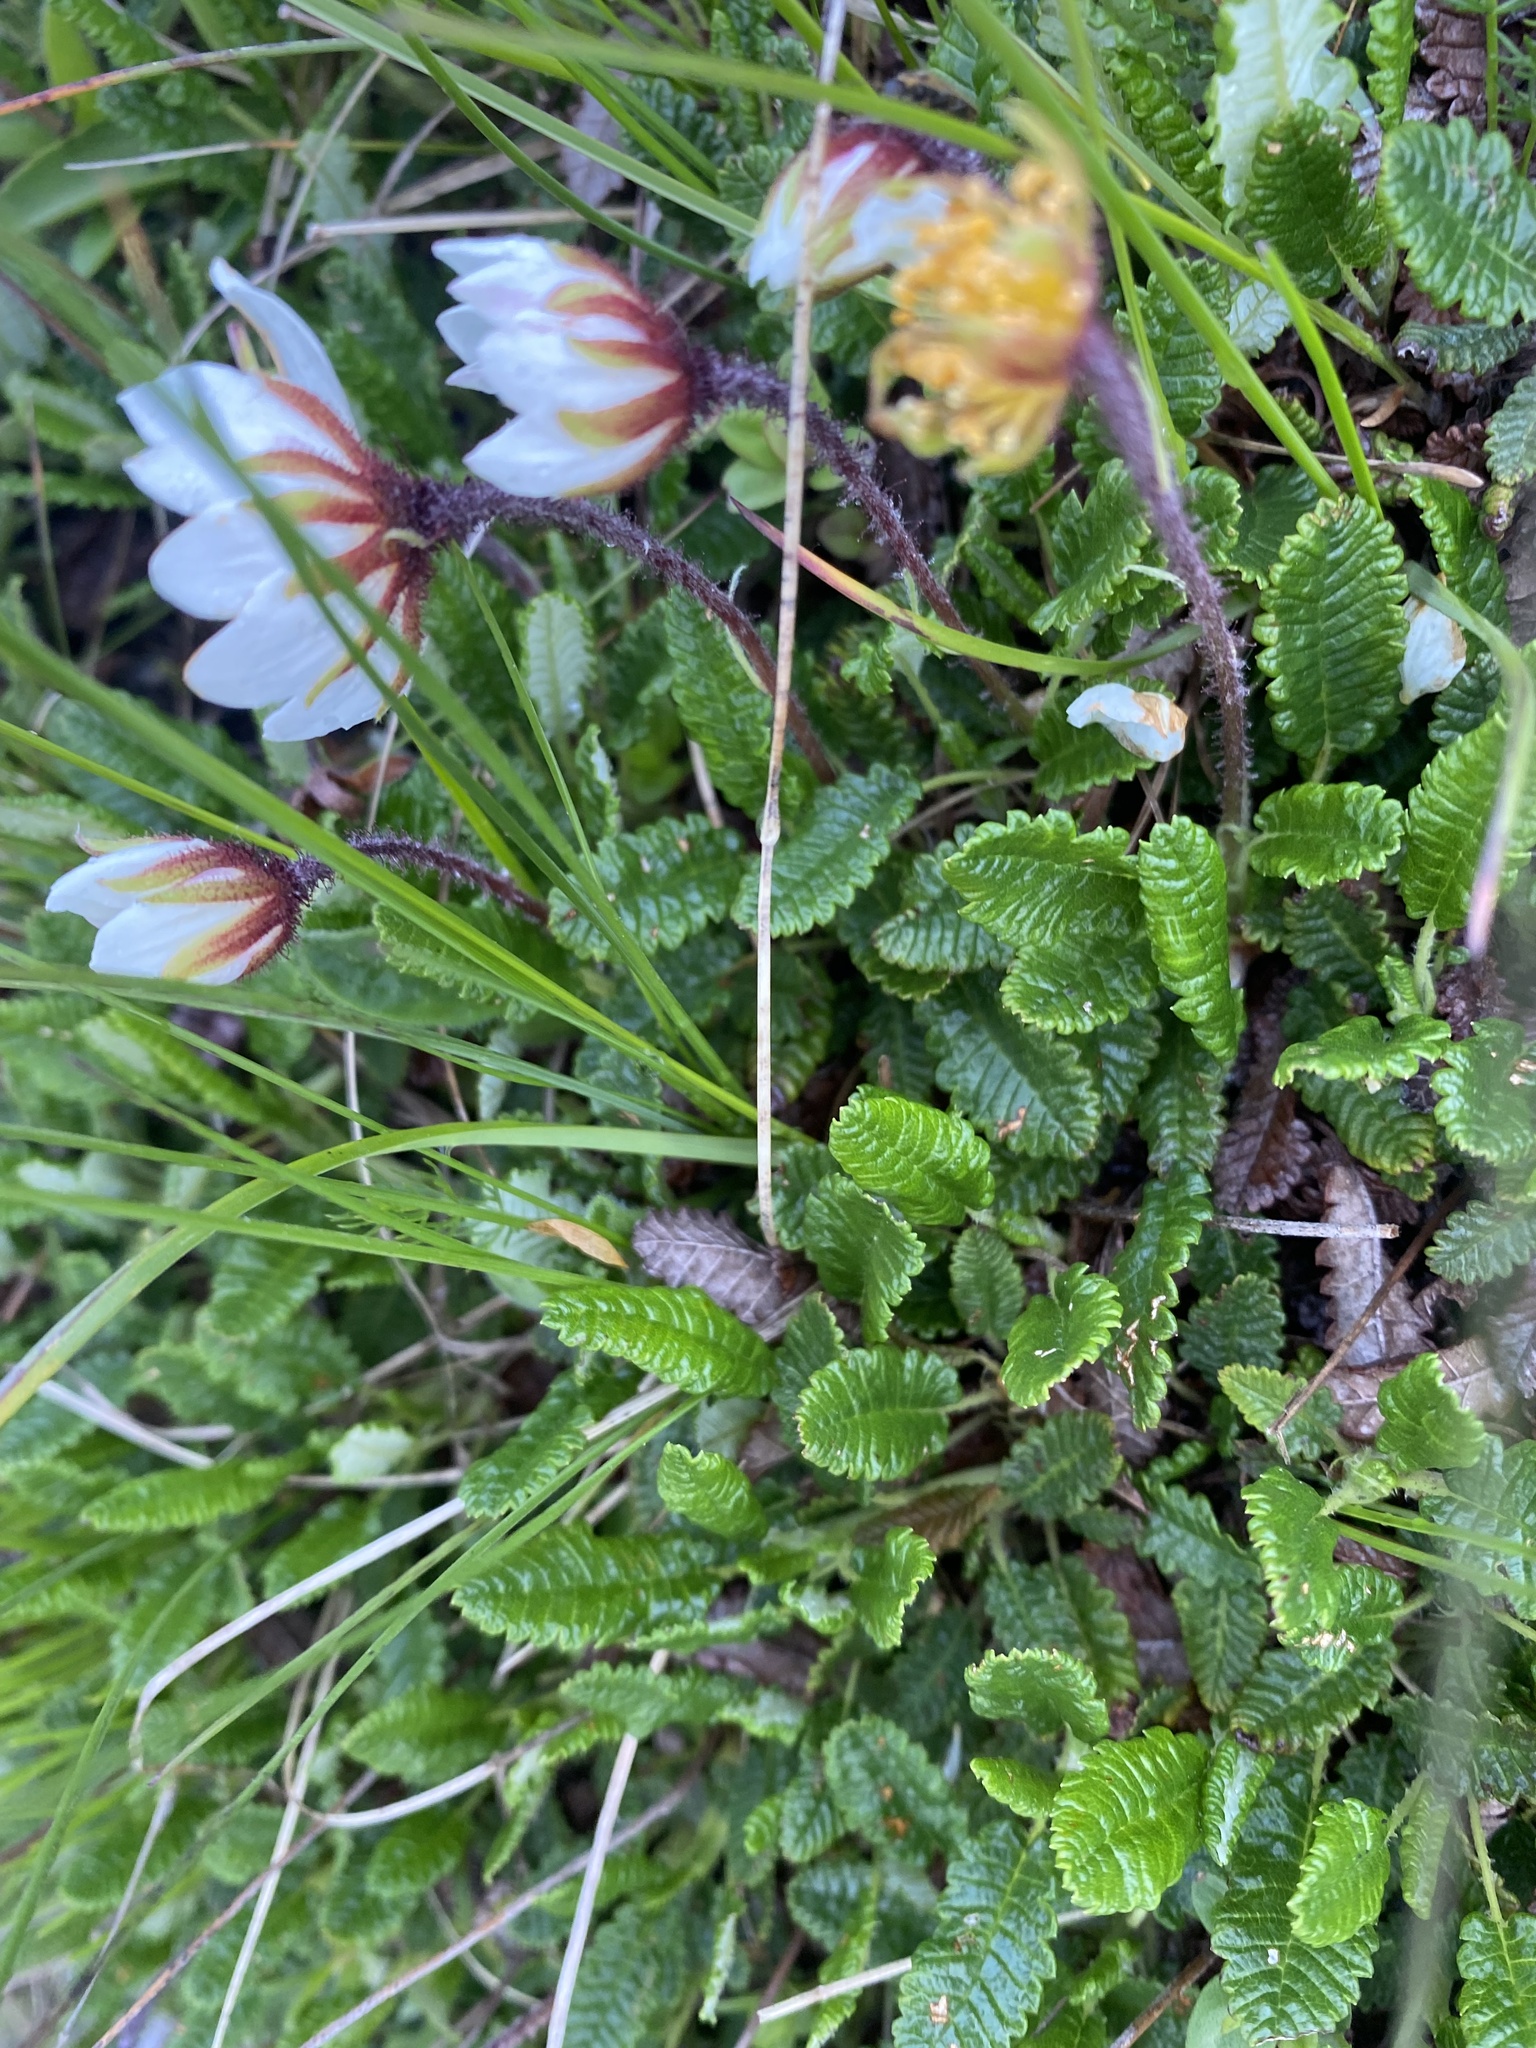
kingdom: Plantae
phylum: Tracheophyta
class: Magnoliopsida
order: Rosales
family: Rosaceae
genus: Dryas
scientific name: Dryas octopetala
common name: Eight-petal mountain-avens
